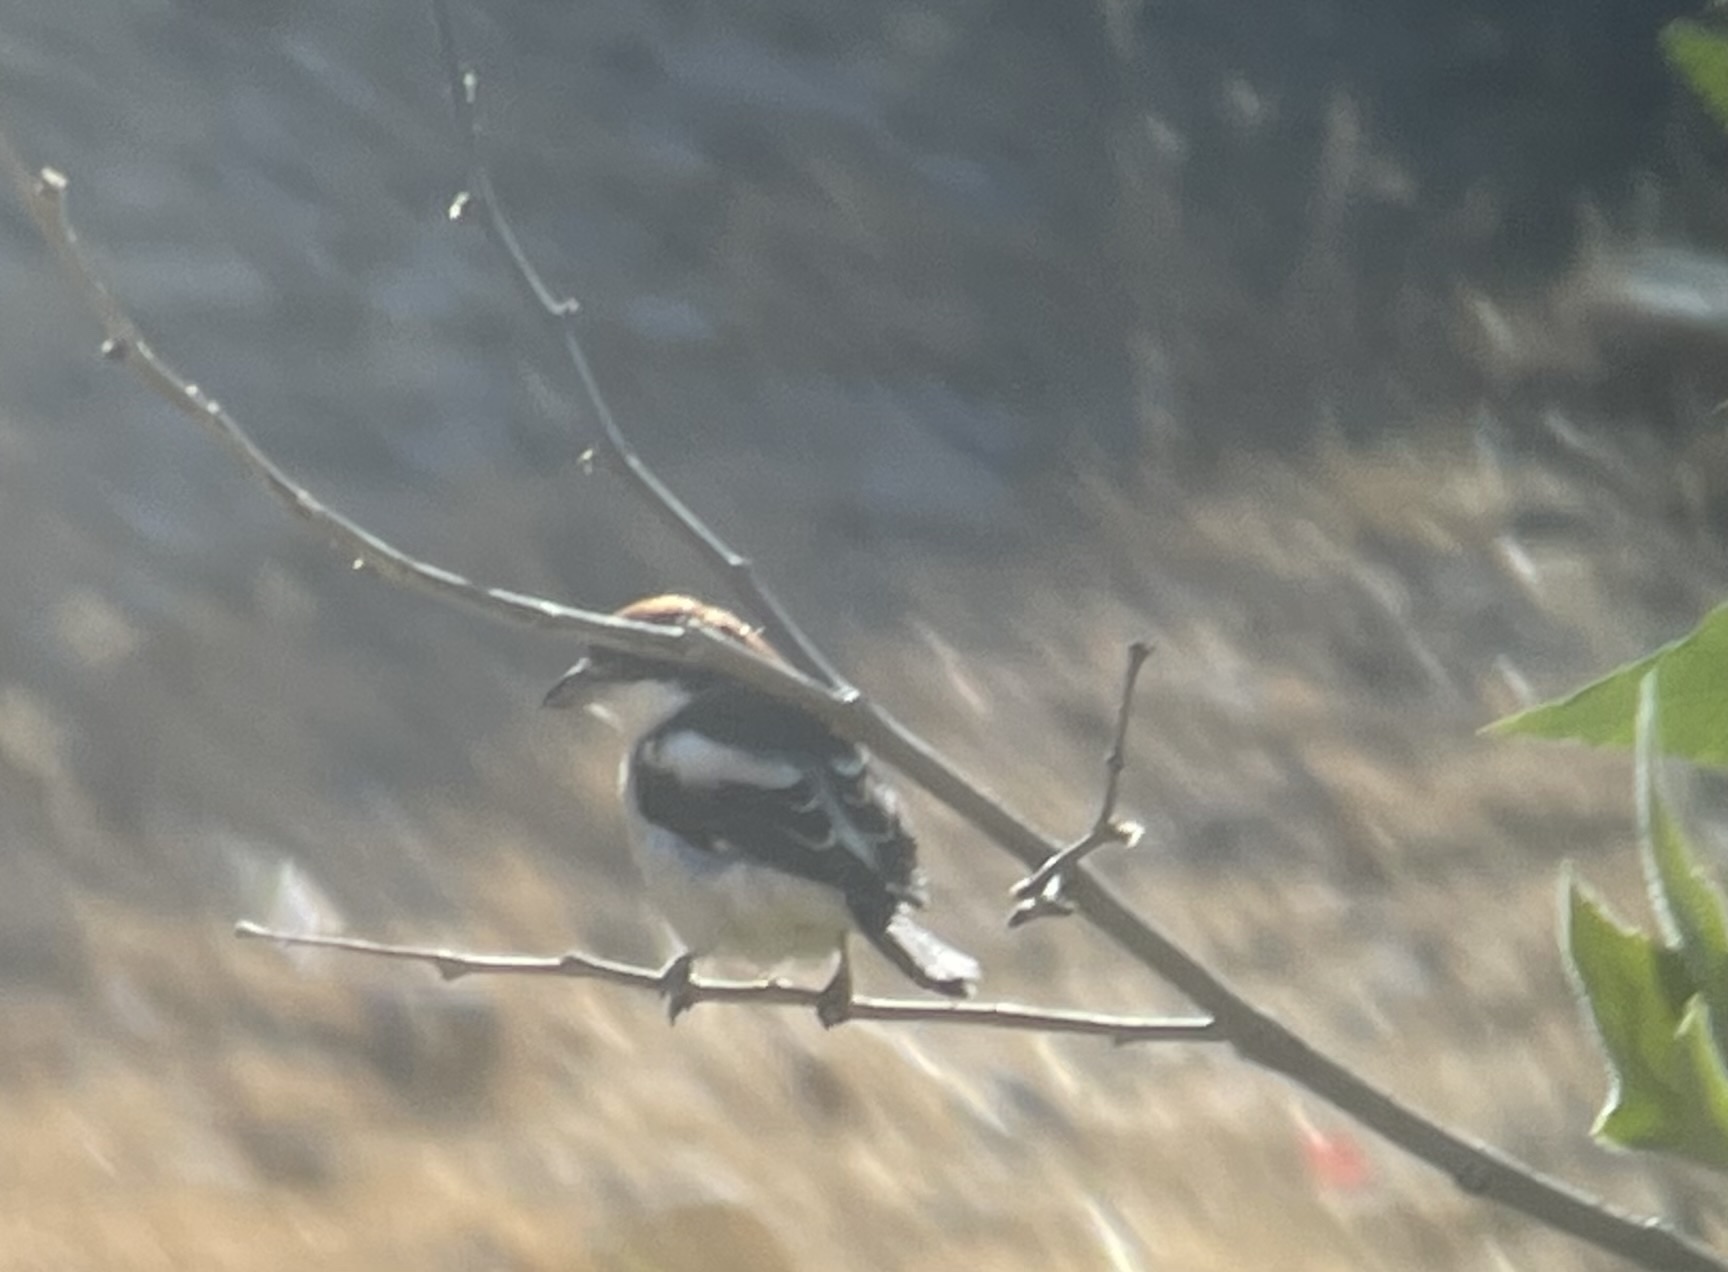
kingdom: Animalia
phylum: Chordata
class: Aves
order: Passeriformes
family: Laniidae
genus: Lanius
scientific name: Lanius senator
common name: Woodchat shrike
